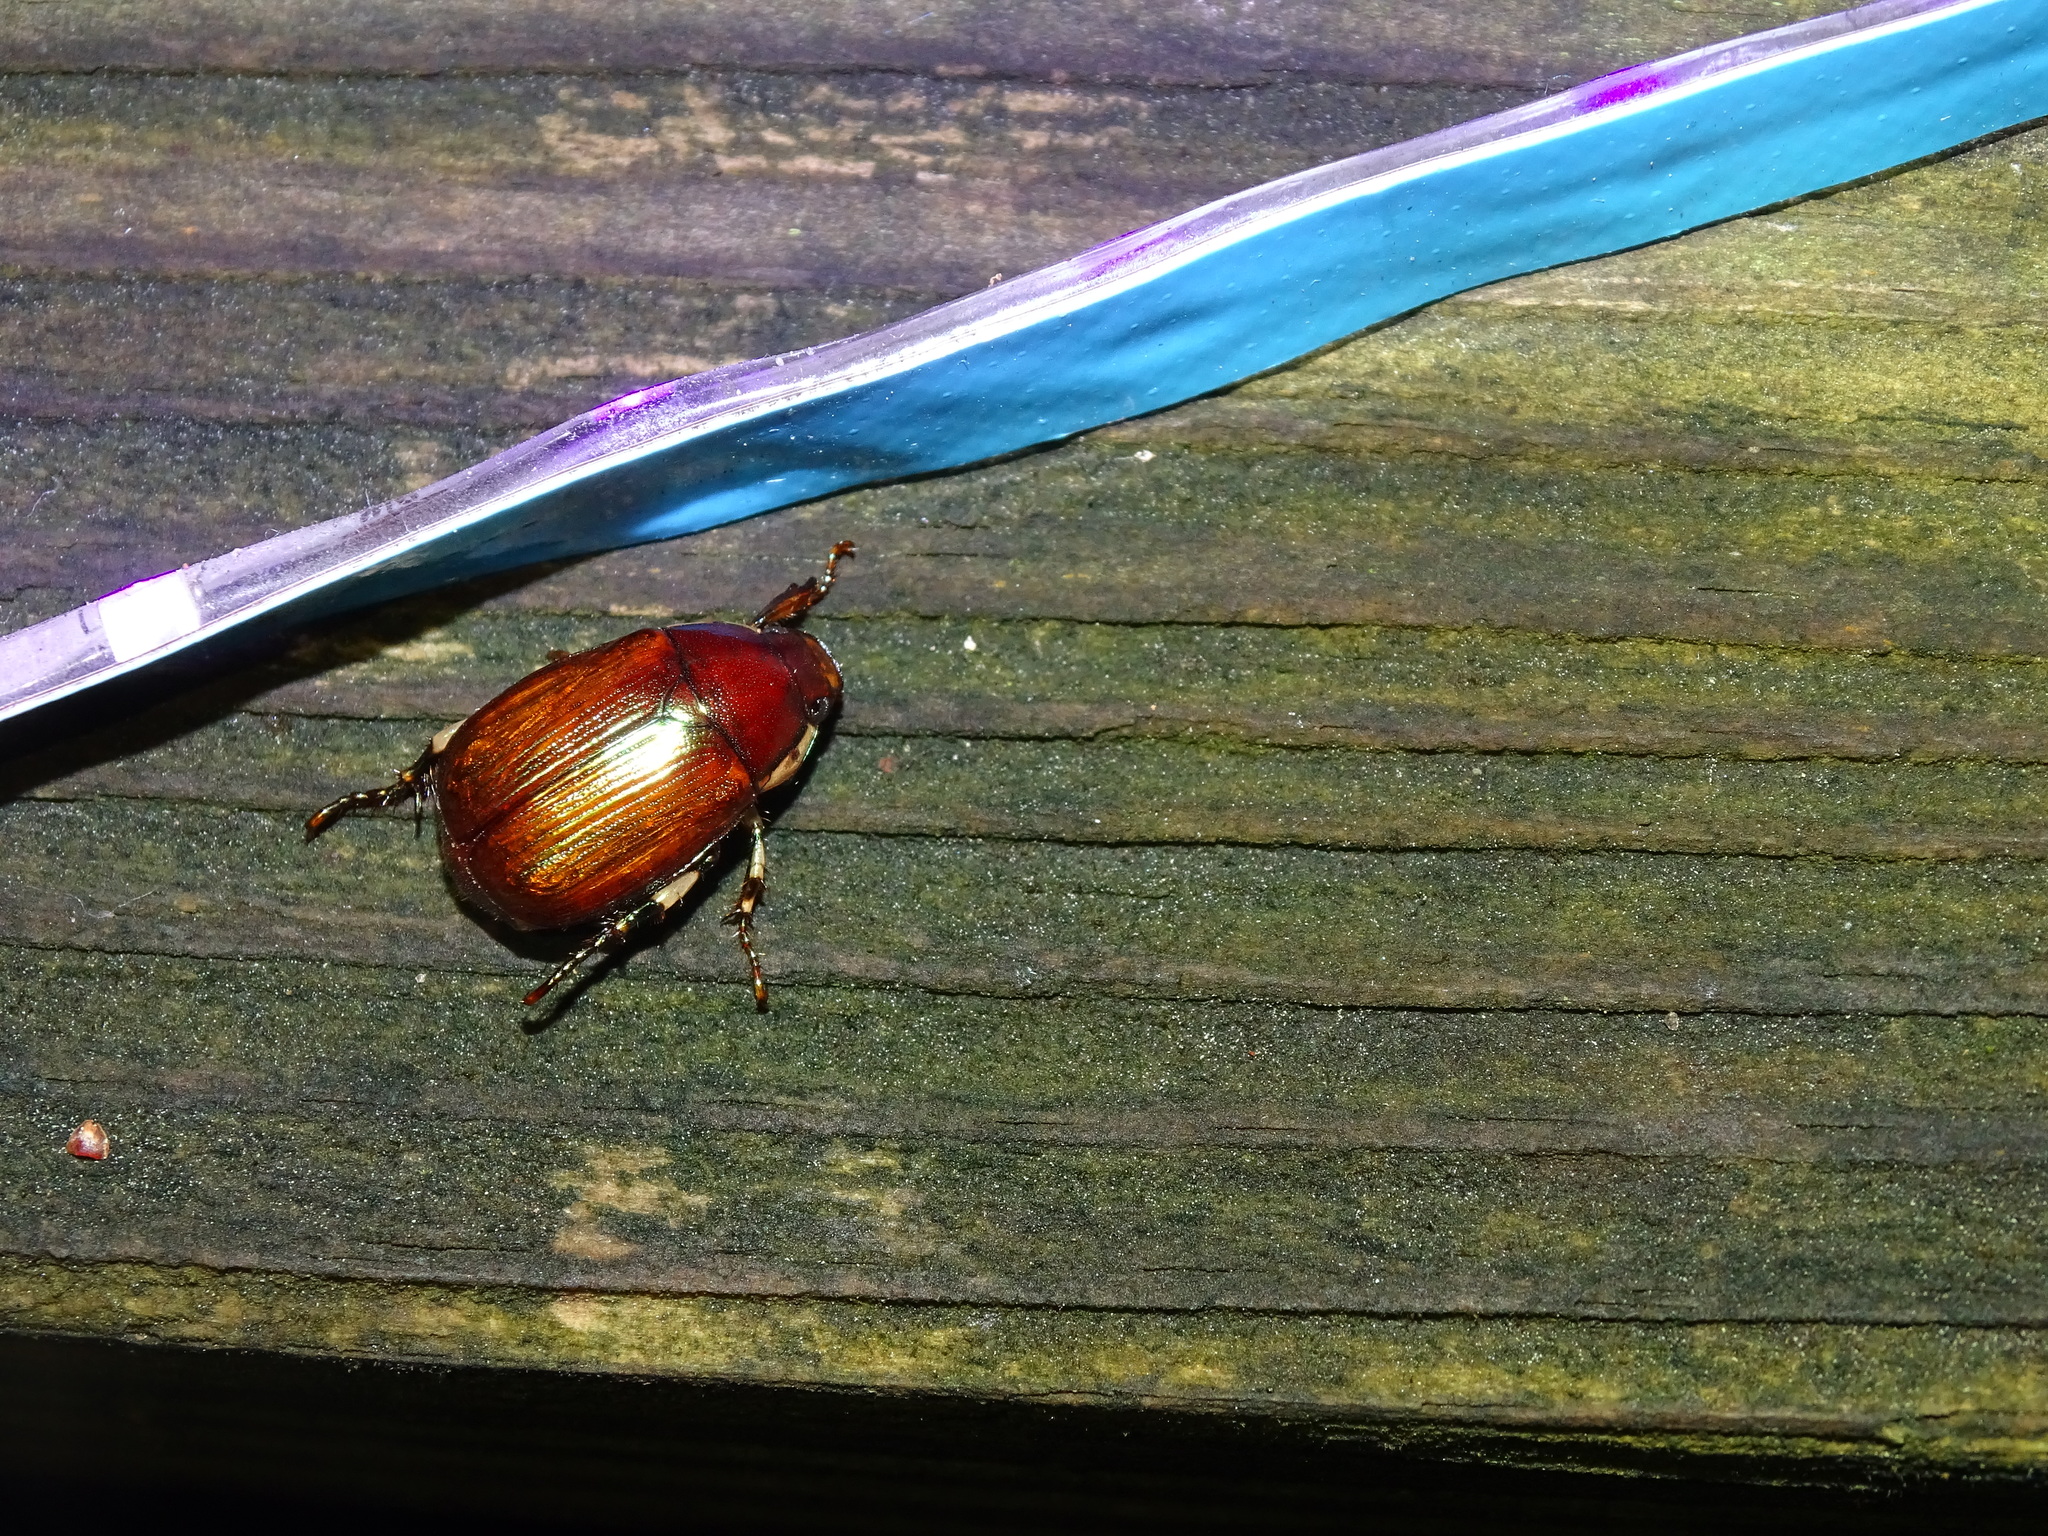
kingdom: Animalia
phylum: Arthropoda
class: Insecta
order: Coleoptera
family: Scarabaeidae
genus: Callistethus
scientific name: Callistethus marginatus
